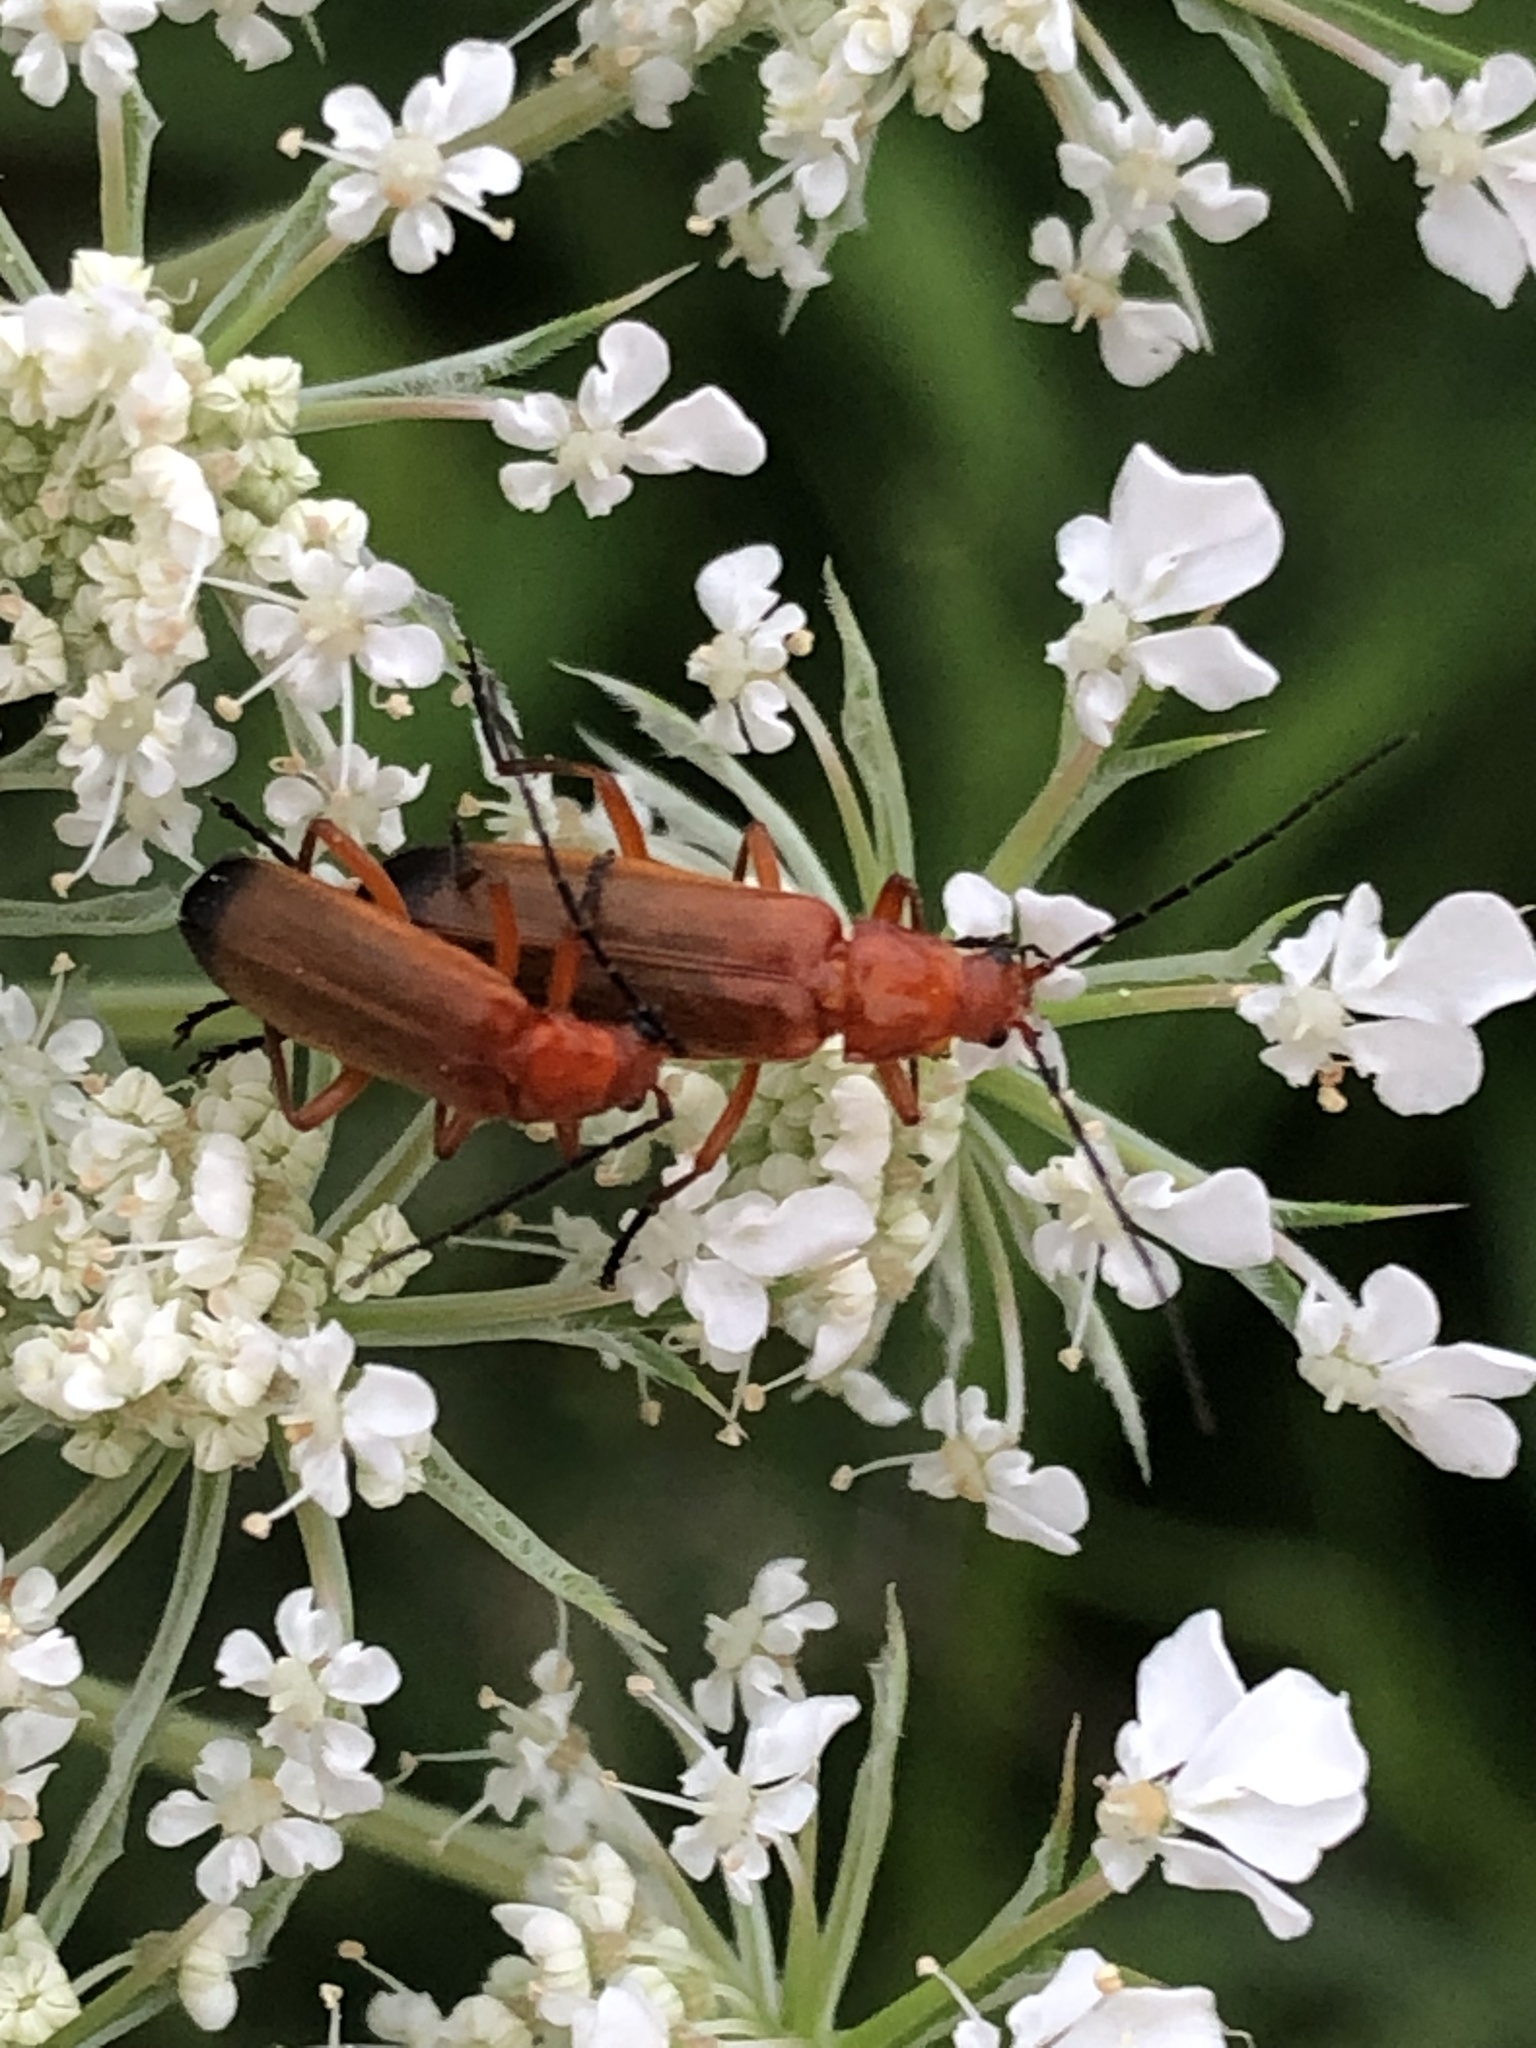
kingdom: Animalia
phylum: Arthropoda
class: Insecta
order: Coleoptera
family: Cantharidae
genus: Rhagonycha
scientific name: Rhagonycha fulva
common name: Common red soldier beetle
